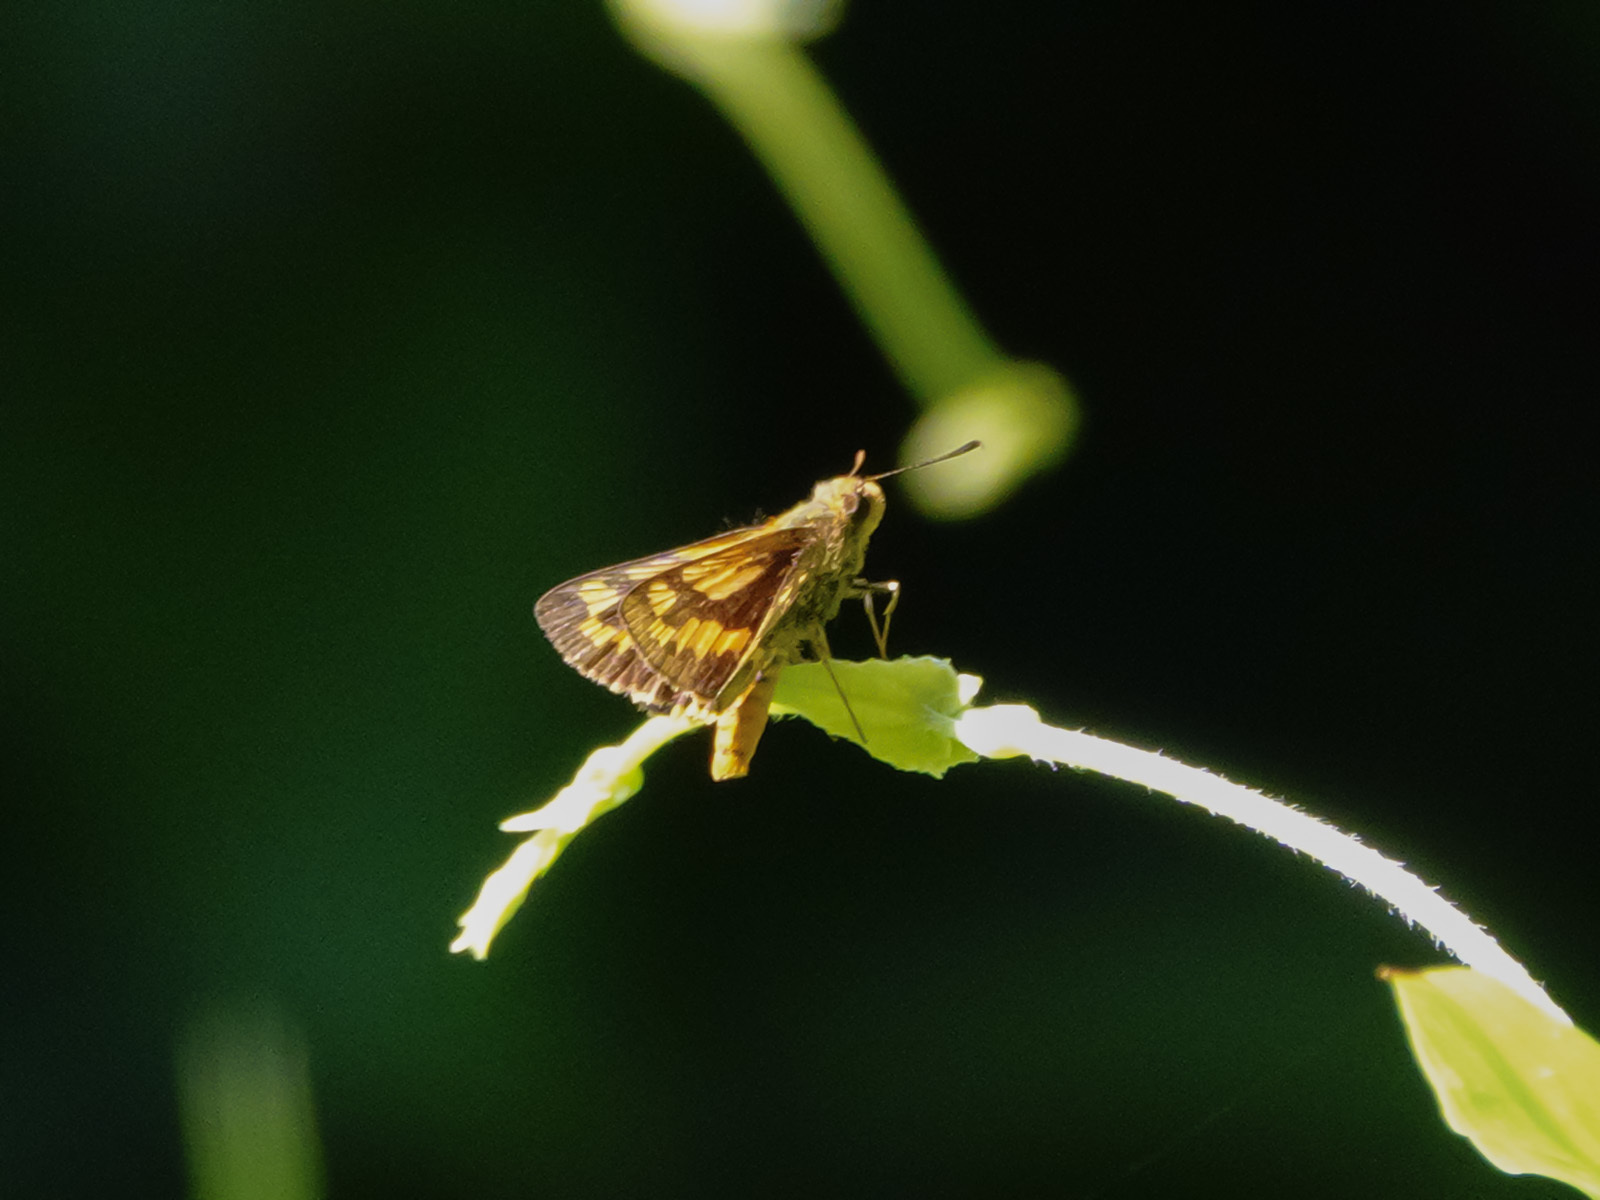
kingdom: Animalia
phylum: Arthropoda
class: Insecta
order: Lepidoptera
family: Hesperiidae
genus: Potanthus
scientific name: Potanthus omaha
